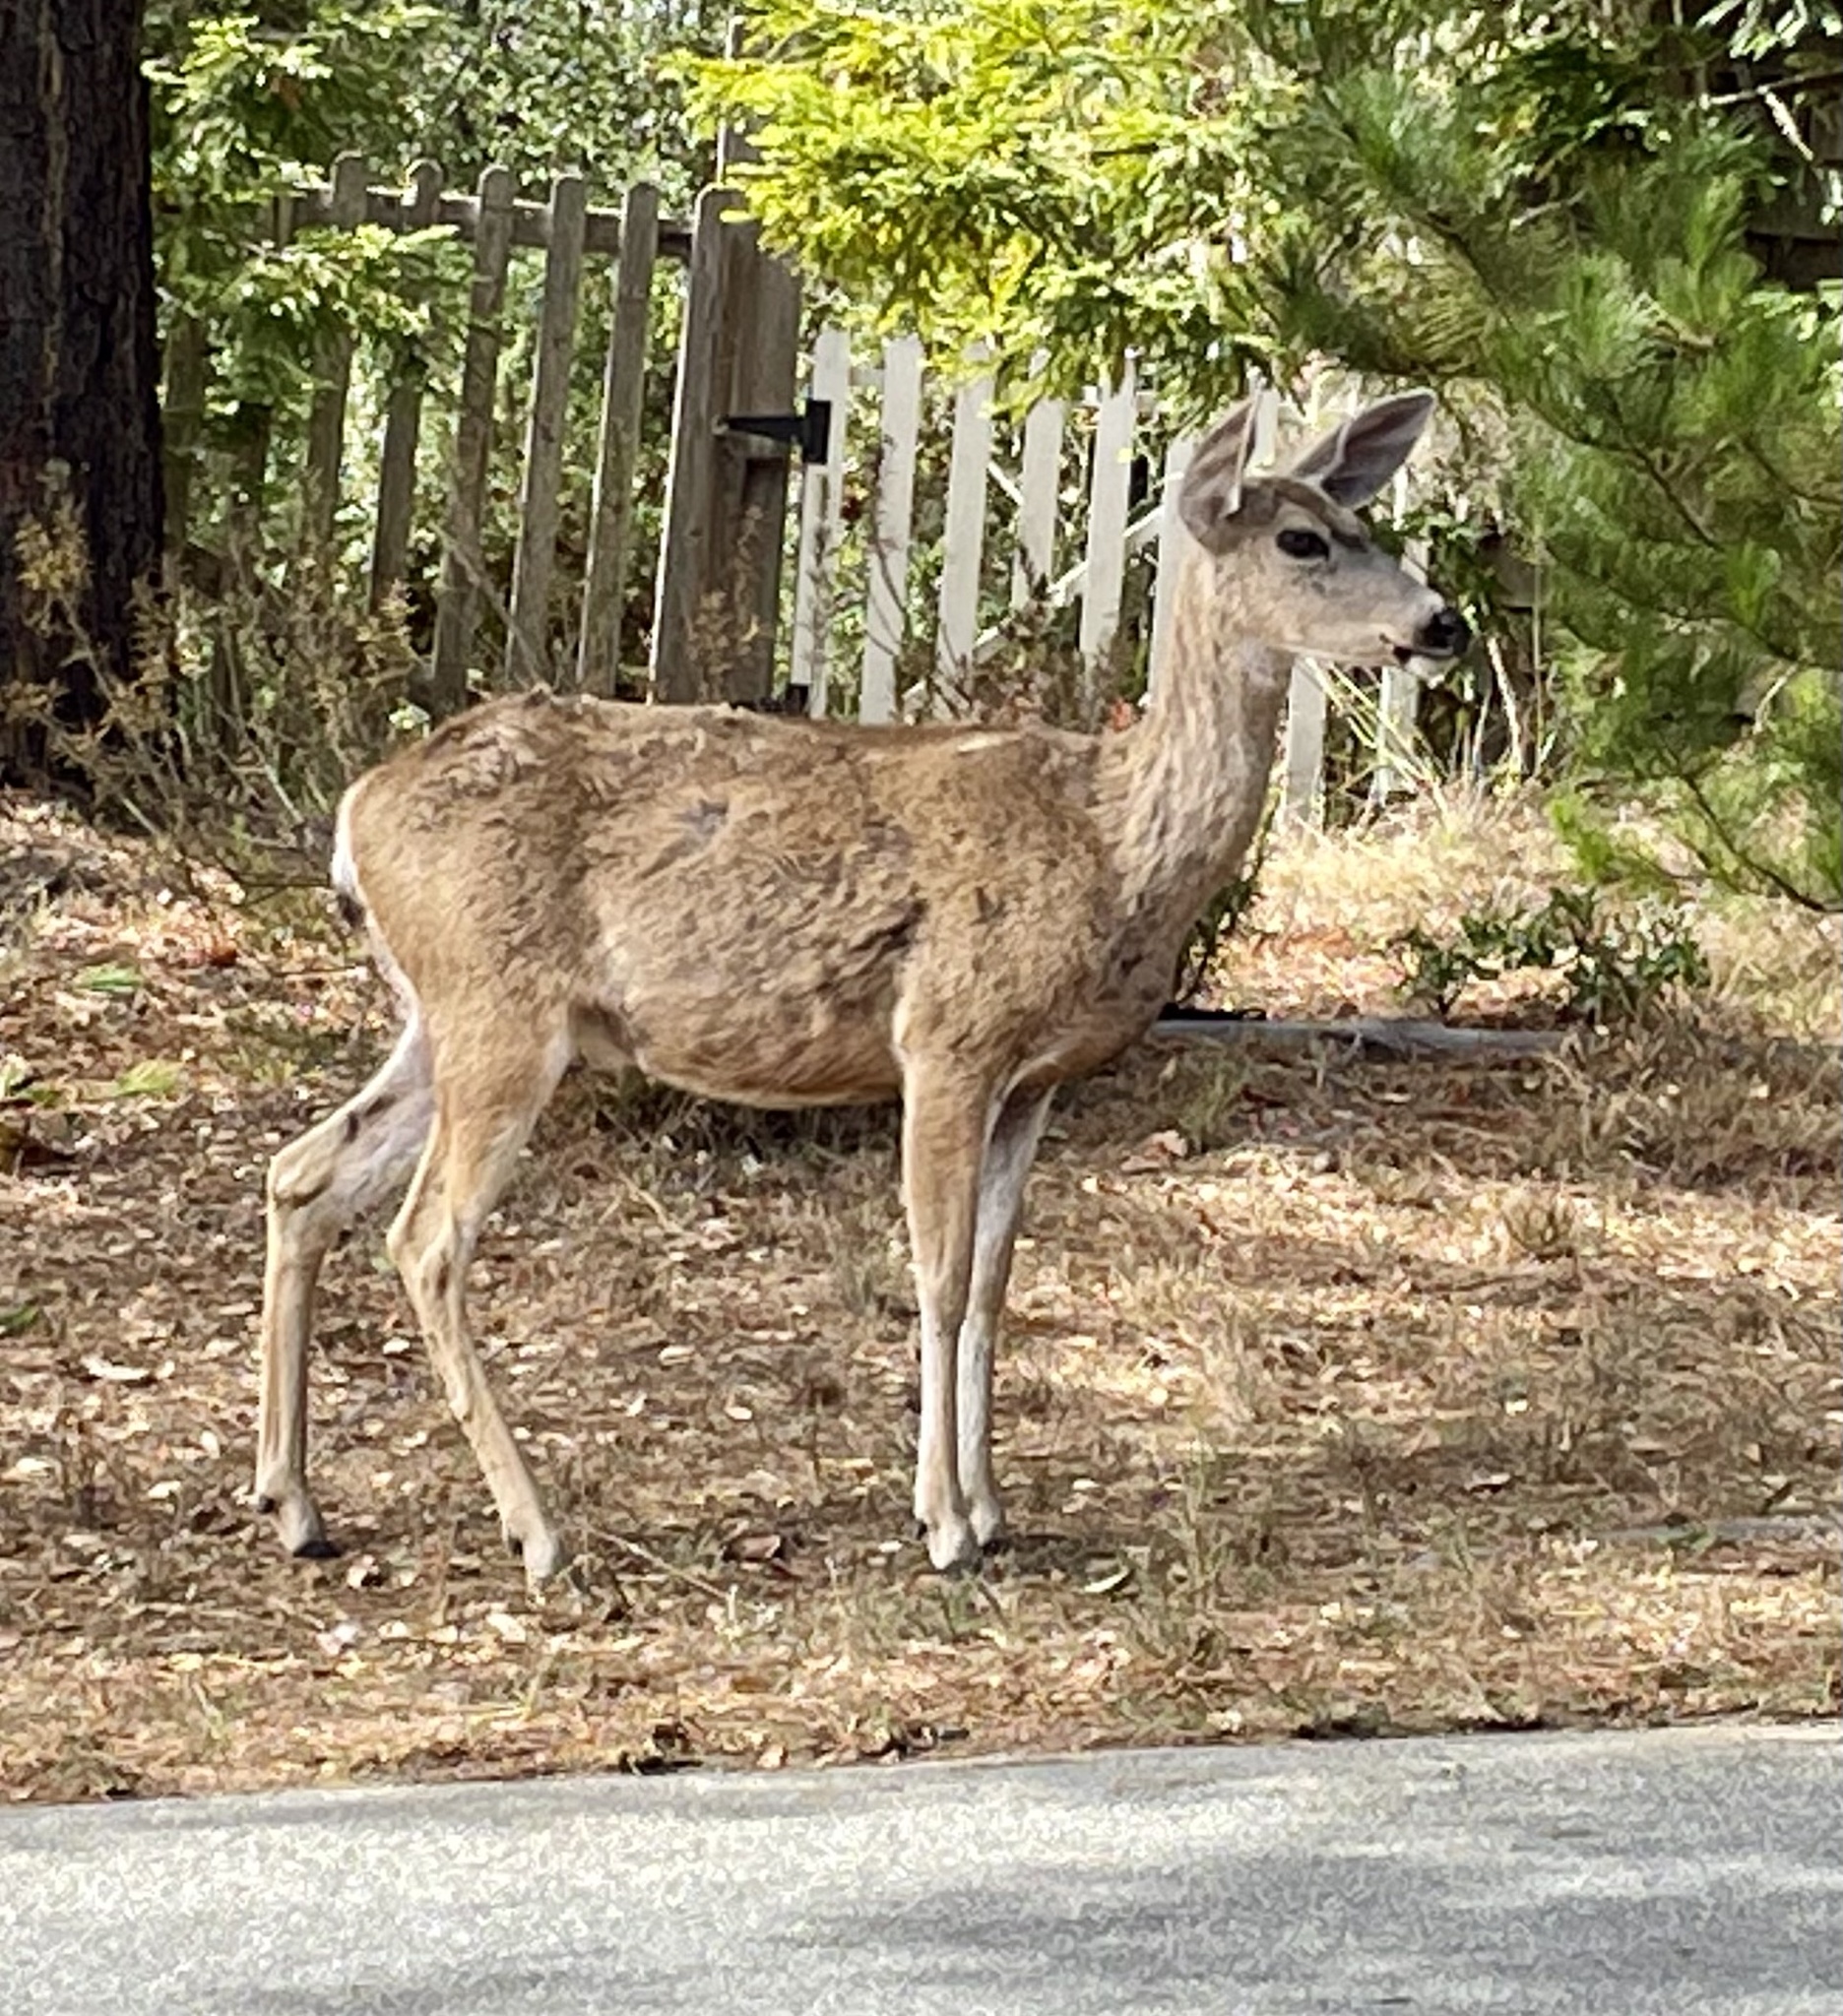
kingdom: Animalia
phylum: Chordata
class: Mammalia
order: Artiodactyla
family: Cervidae
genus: Odocoileus
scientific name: Odocoileus hemionus
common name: Mule deer
